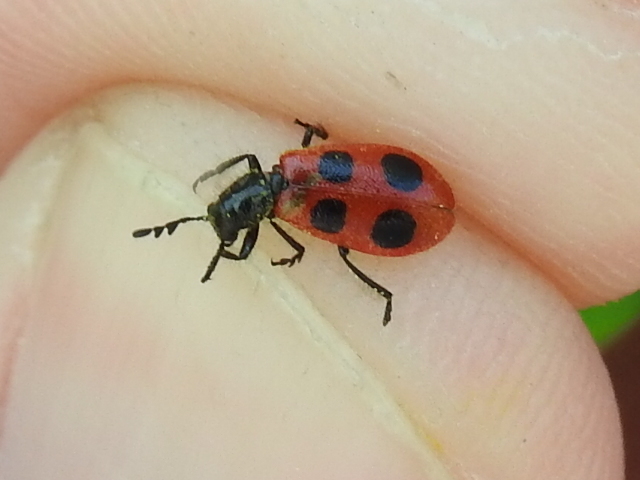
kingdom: Animalia
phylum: Arthropoda
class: Insecta
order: Coleoptera
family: Cleridae
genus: Pelonides
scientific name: Pelonides
